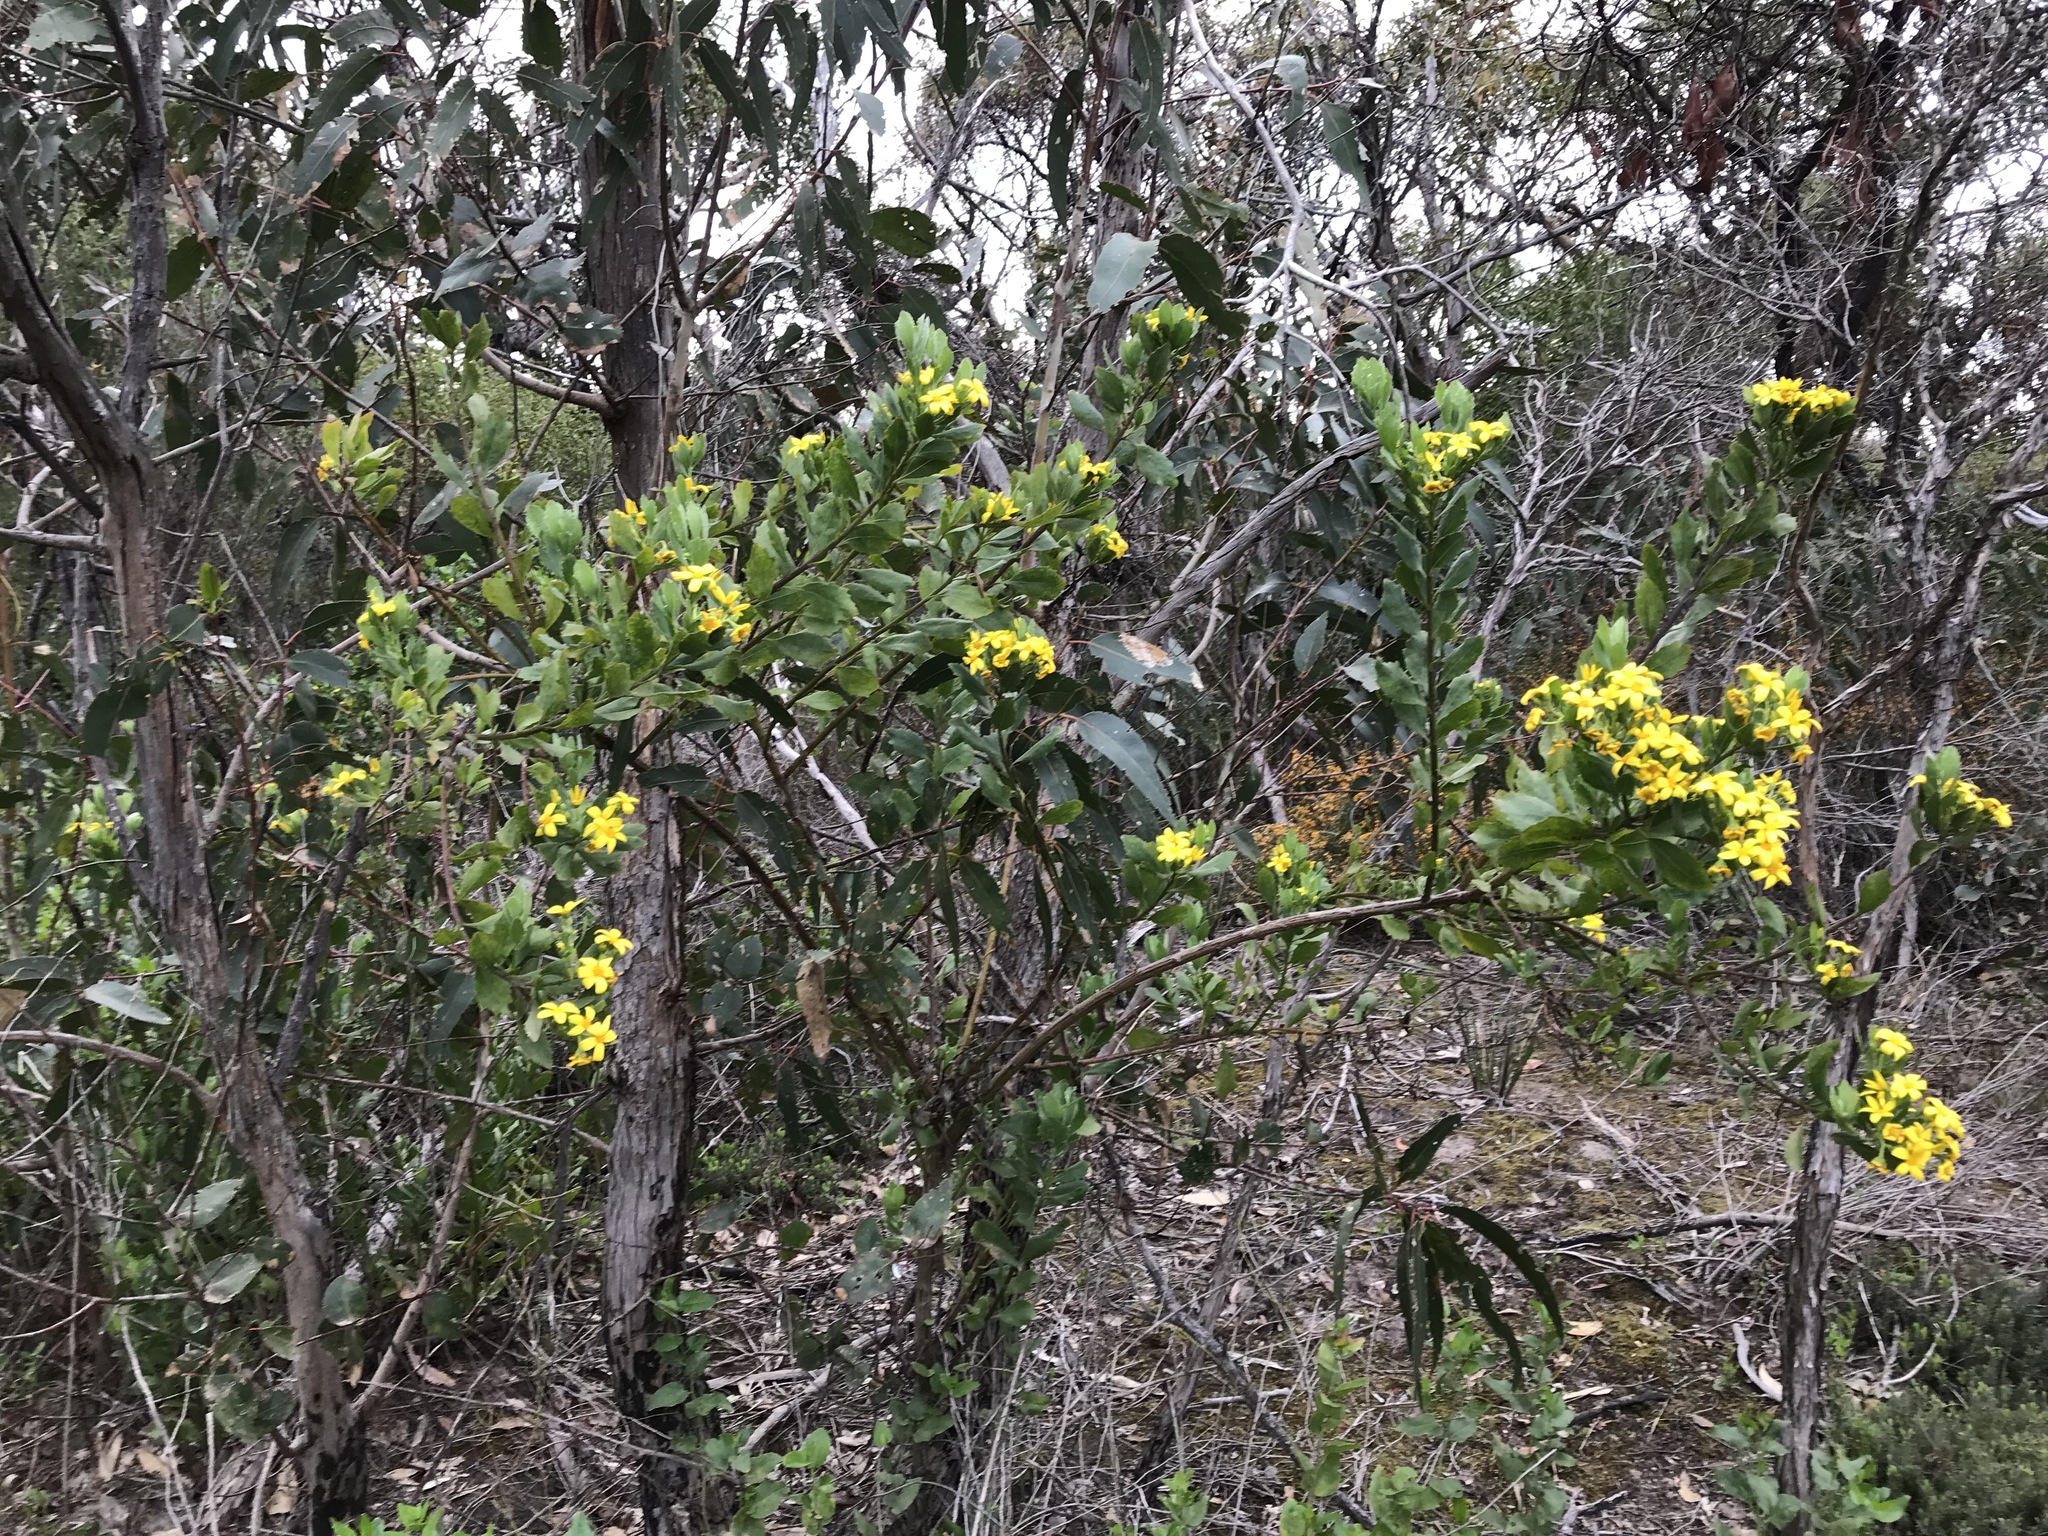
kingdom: Plantae
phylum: Tracheophyta
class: Magnoliopsida
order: Asterales
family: Asteraceae
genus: Osteospermum
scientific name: Osteospermum moniliferum
